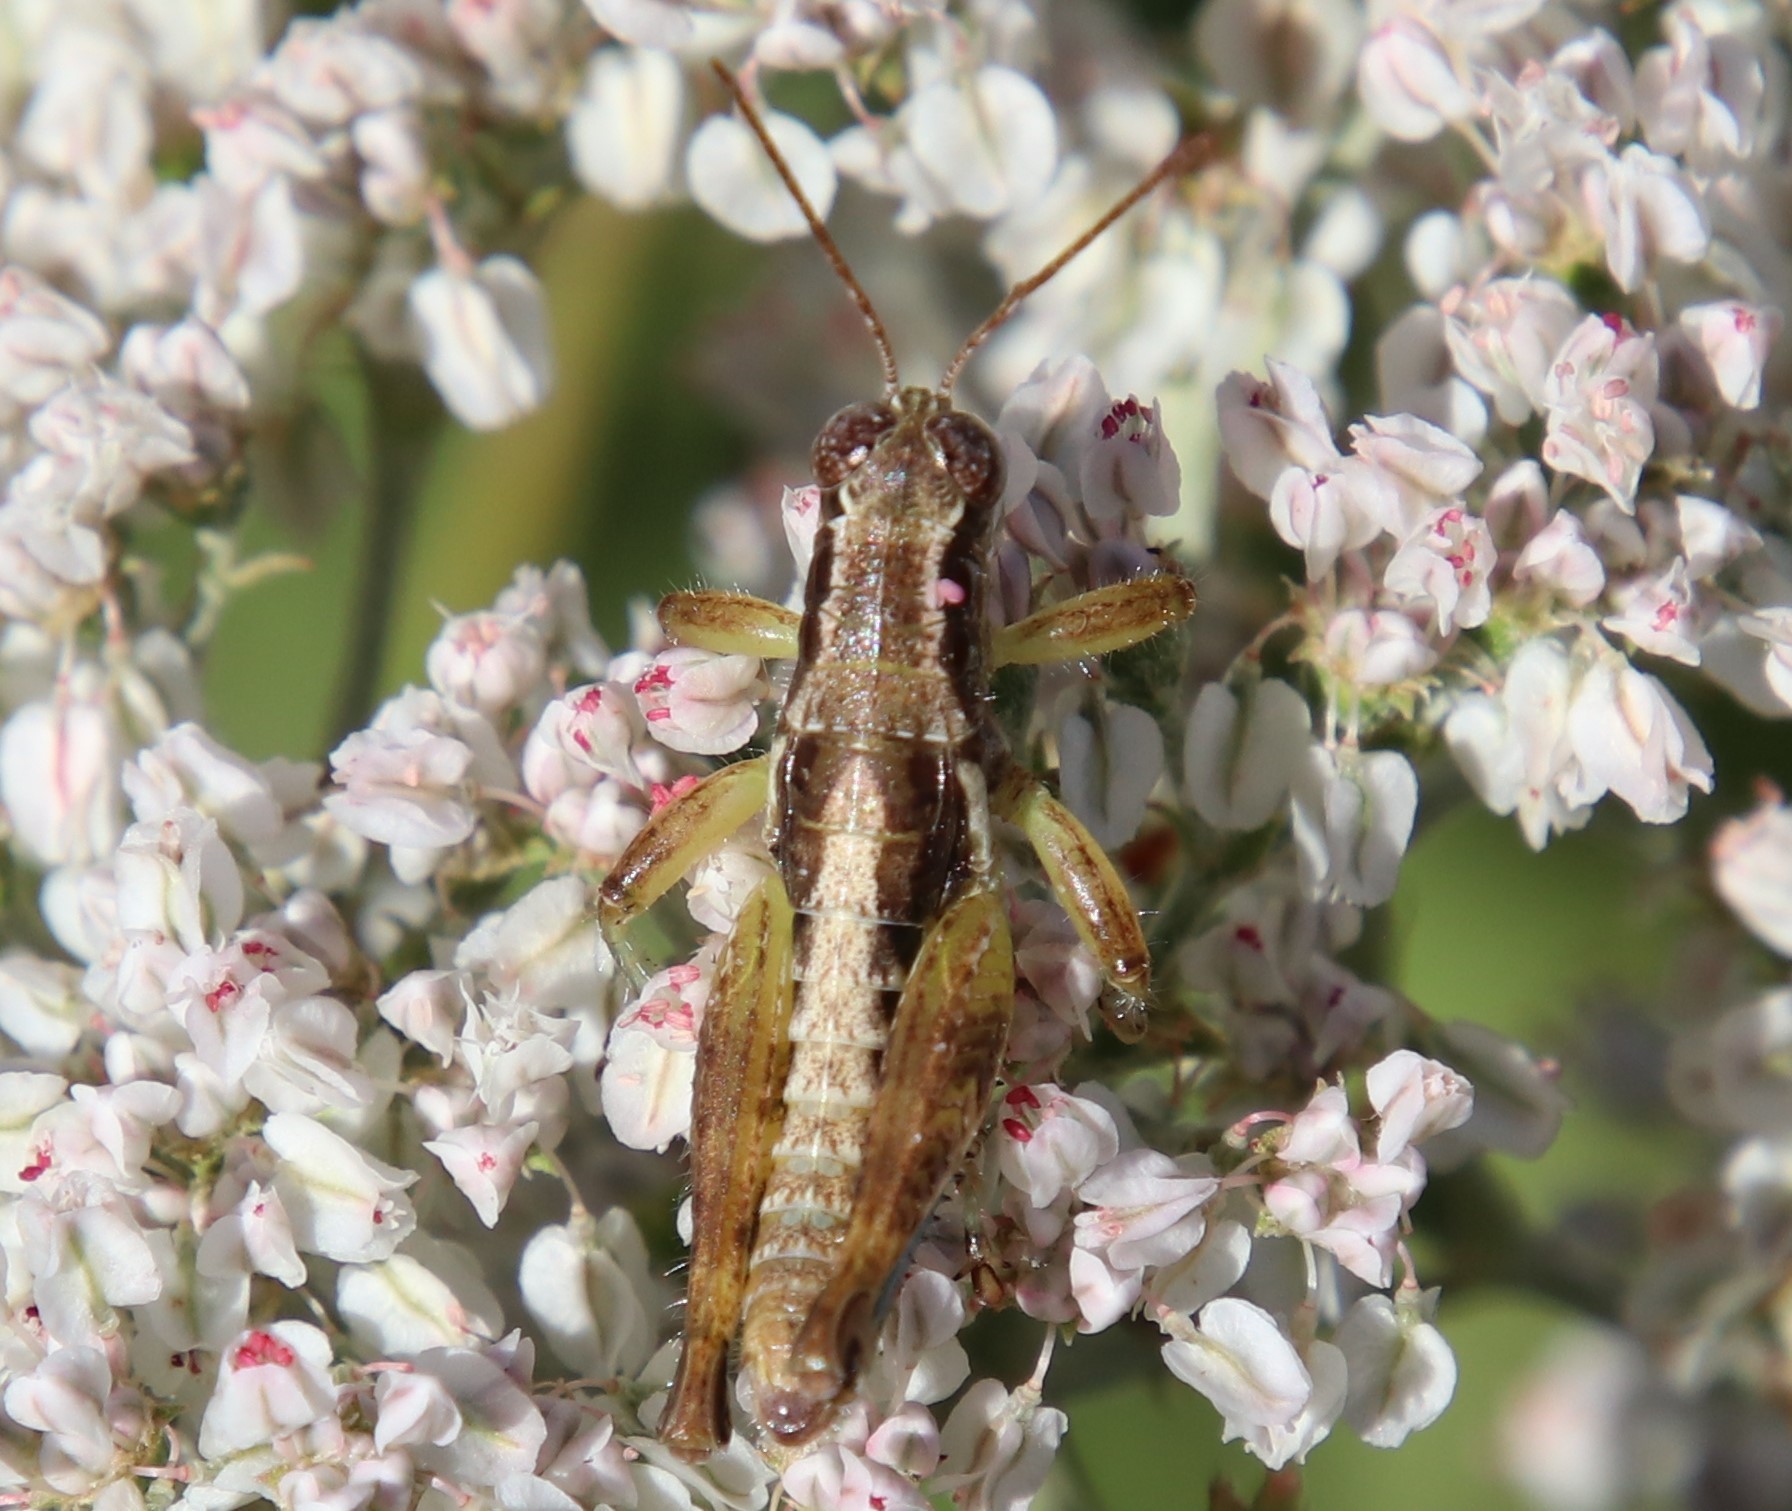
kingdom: Animalia
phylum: Arthropoda
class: Insecta
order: Orthoptera
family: Acrididae
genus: Phaedrotettix
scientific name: Phaedrotettix accola
